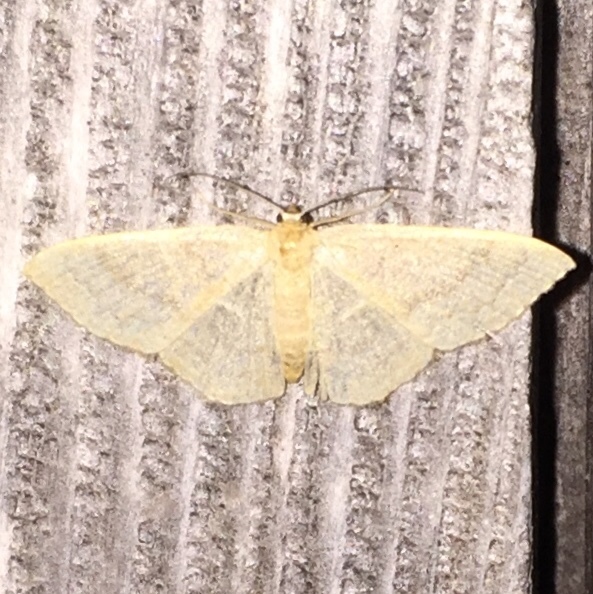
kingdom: Animalia
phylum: Arthropoda
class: Insecta
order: Lepidoptera
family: Geometridae
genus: Pleuroprucha
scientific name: Pleuroprucha insulsaria
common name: Common tan wave
